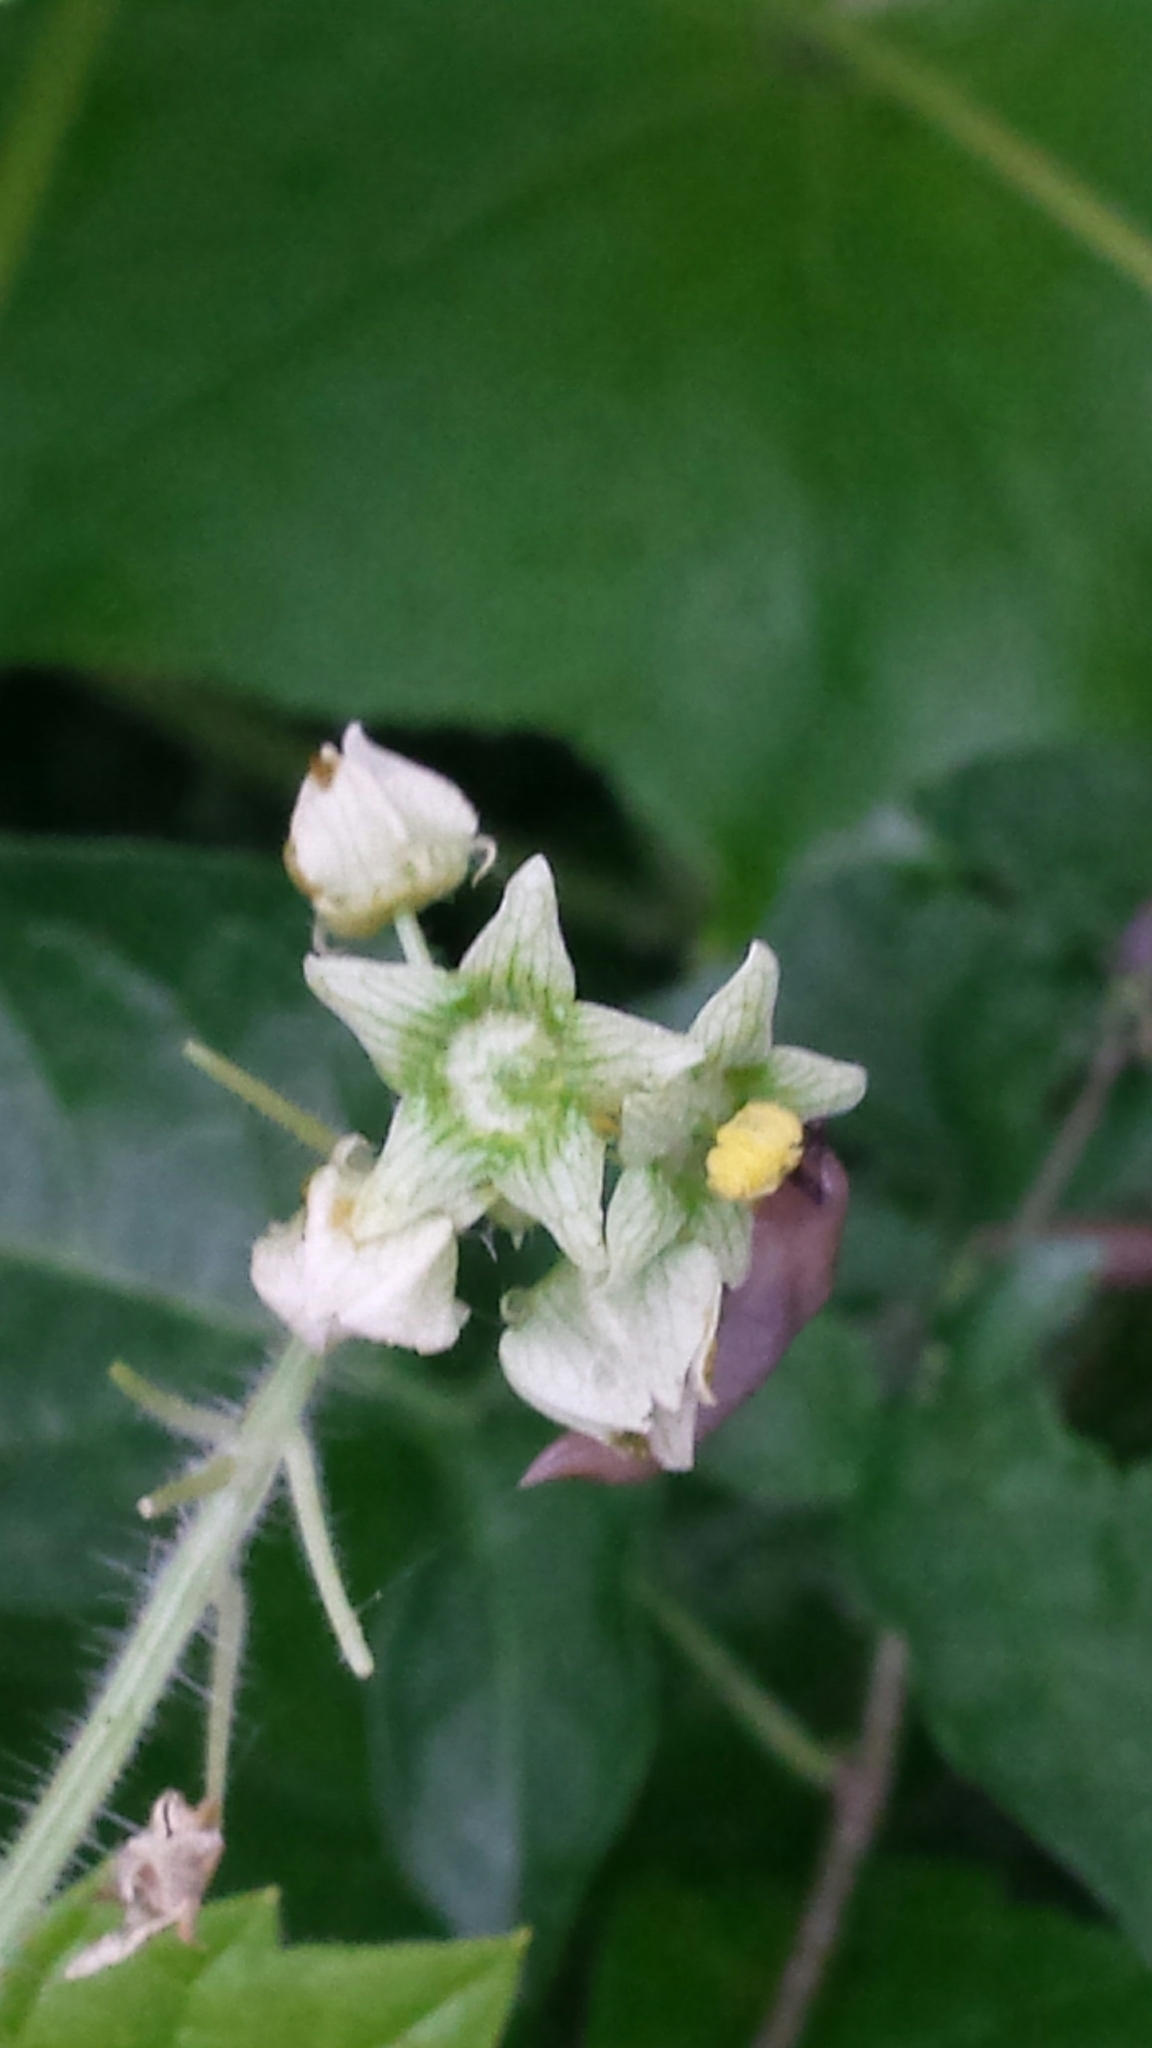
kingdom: Plantae
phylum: Tracheophyta
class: Magnoliopsida
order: Cucurbitales
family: Cucurbitaceae
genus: Sicyos
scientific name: Sicyos angulatus
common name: Angled burr cucumber
